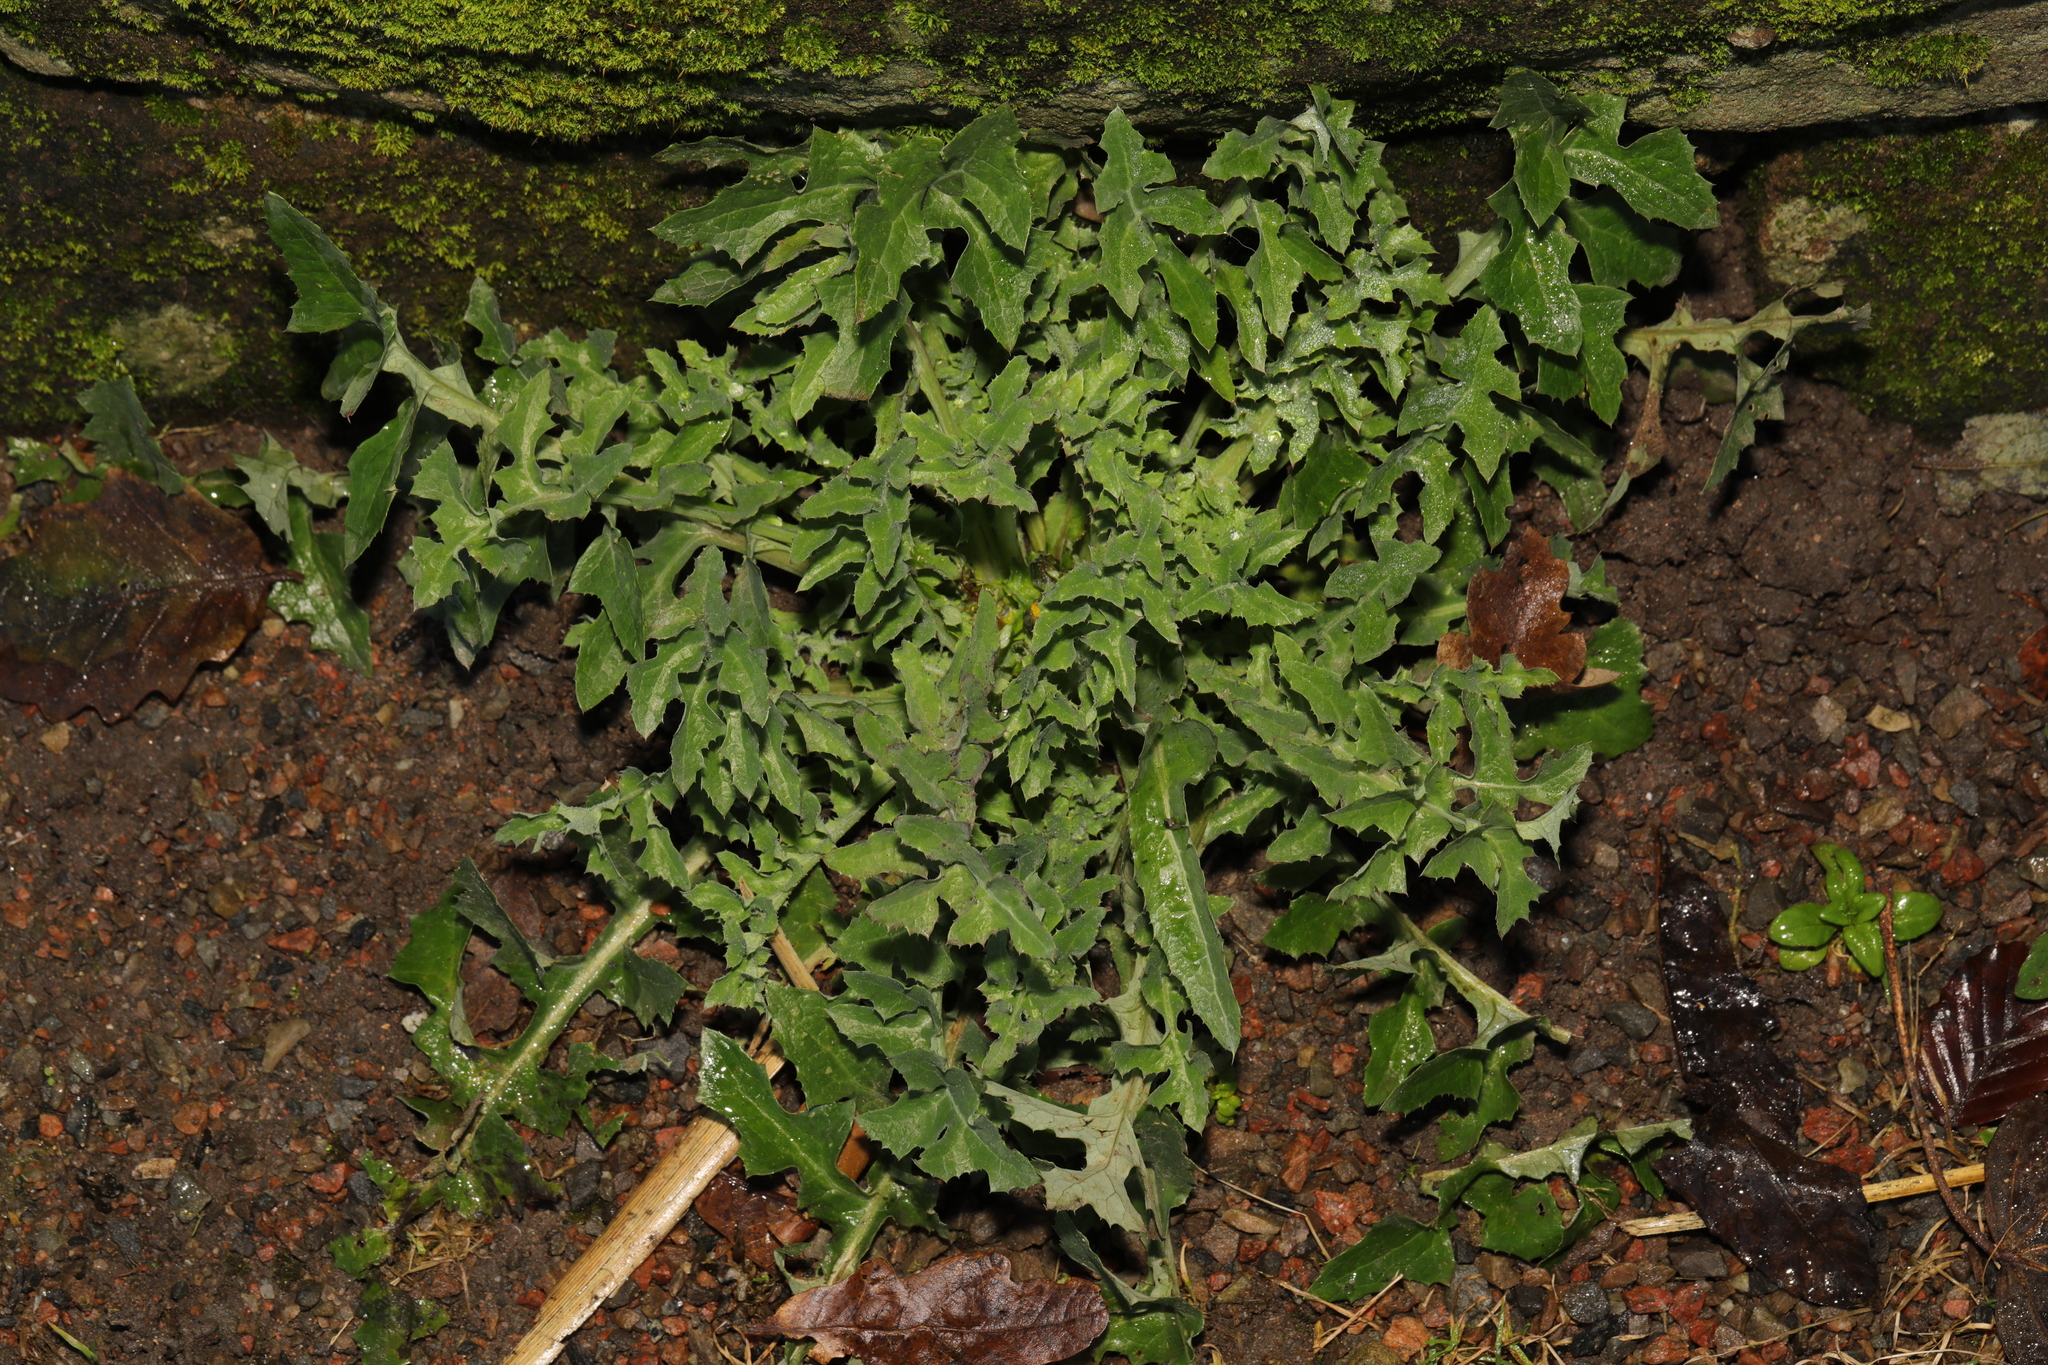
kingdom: Plantae
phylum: Tracheophyta
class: Magnoliopsida
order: Asterales
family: Asteraceae
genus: Sonchus
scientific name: Sonchus oleraceus
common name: Common sowthistle
